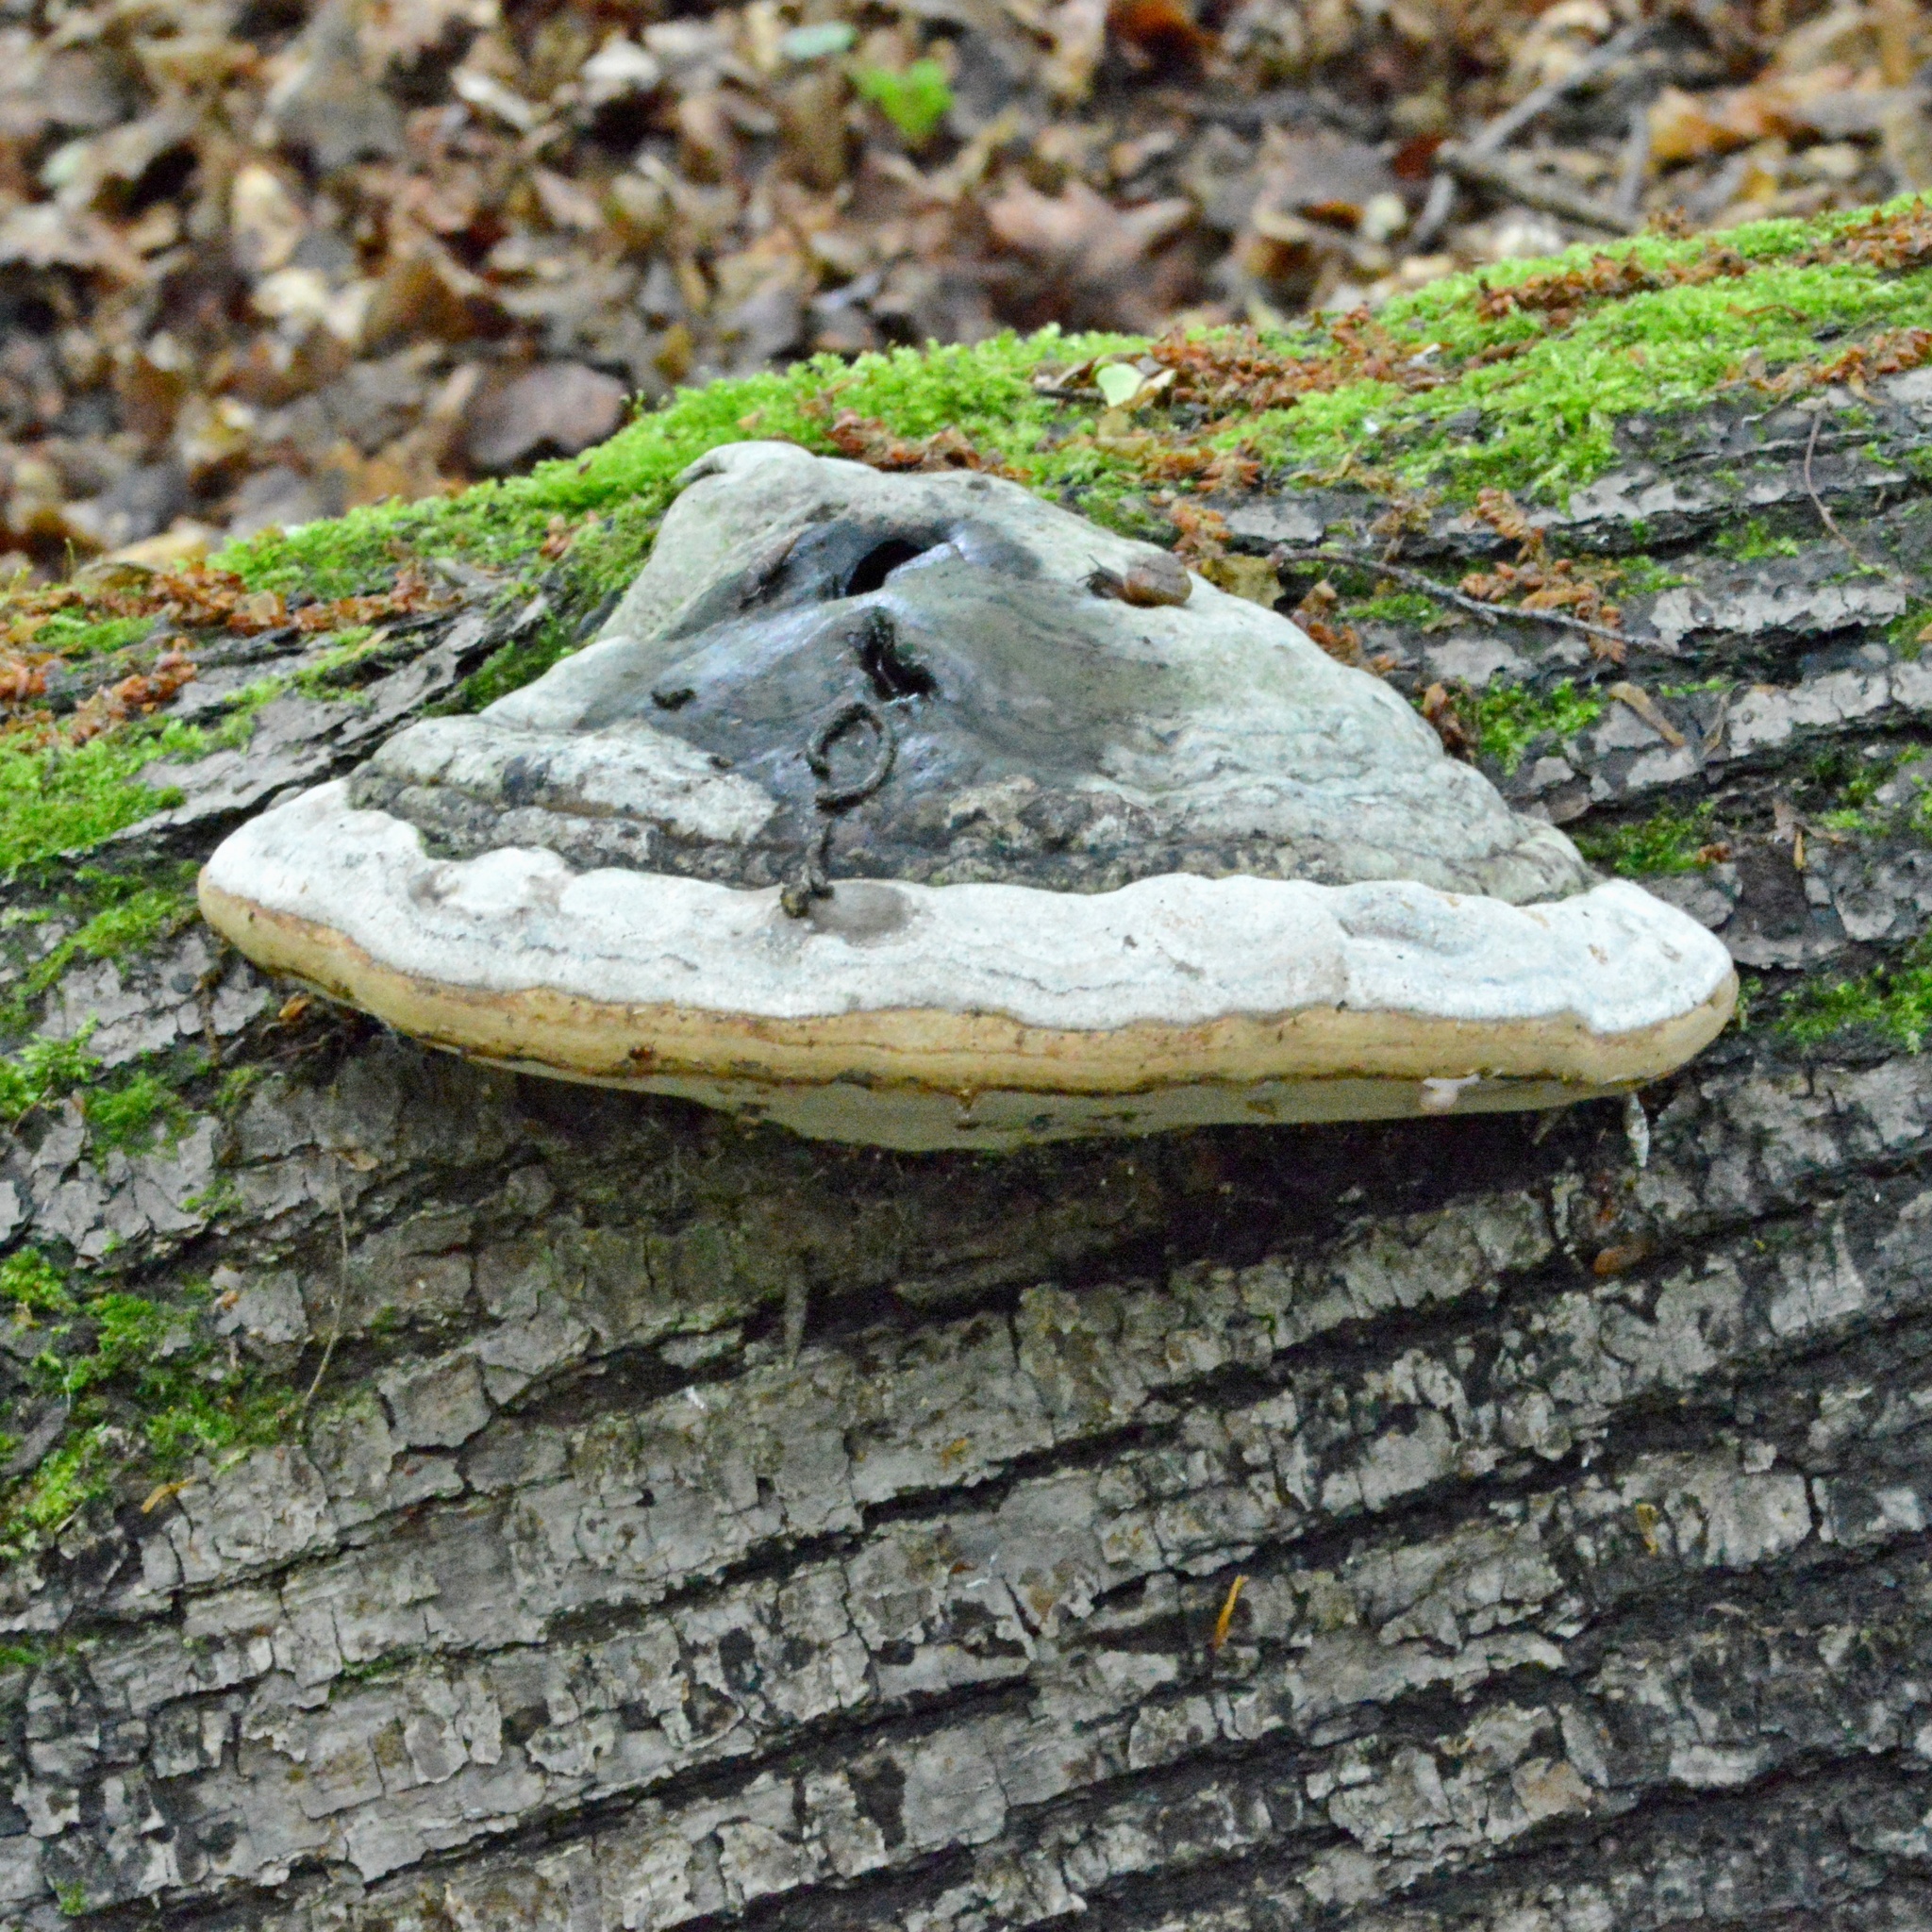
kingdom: Fungi
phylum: Basidiomycota
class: Agaricomycetes
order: Polyporales
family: Polyporaceae
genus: Fomes
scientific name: Fomes fomentarius
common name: Hoof fungus
